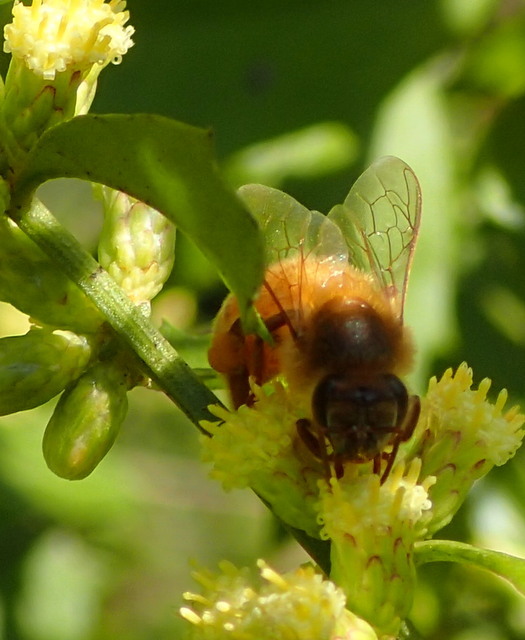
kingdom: Animalia
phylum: Arthropoda
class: Insecta
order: Hymenoptera
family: Apidae
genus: Apis
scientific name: Apis mellifera
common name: Honey bee
